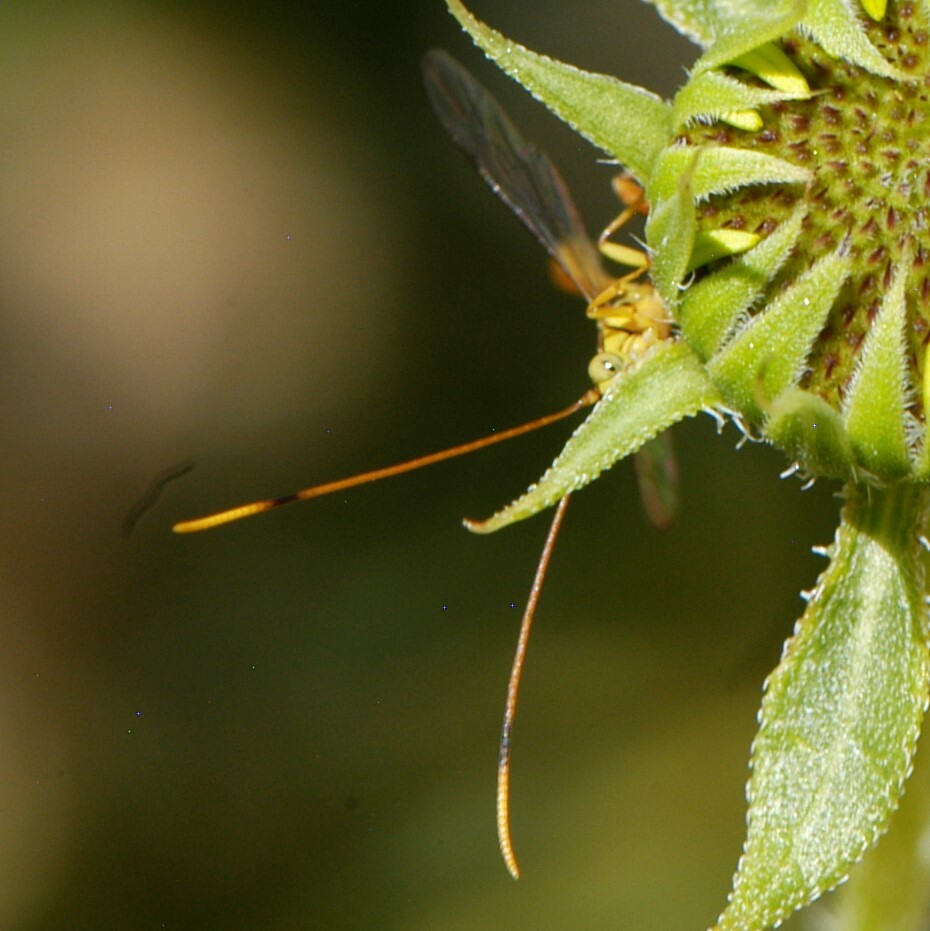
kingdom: Animalia
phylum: Arthropoda
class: Insecta
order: Hymenoptera
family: Ichneumonidae
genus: Grotea
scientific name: Grotea lokii
